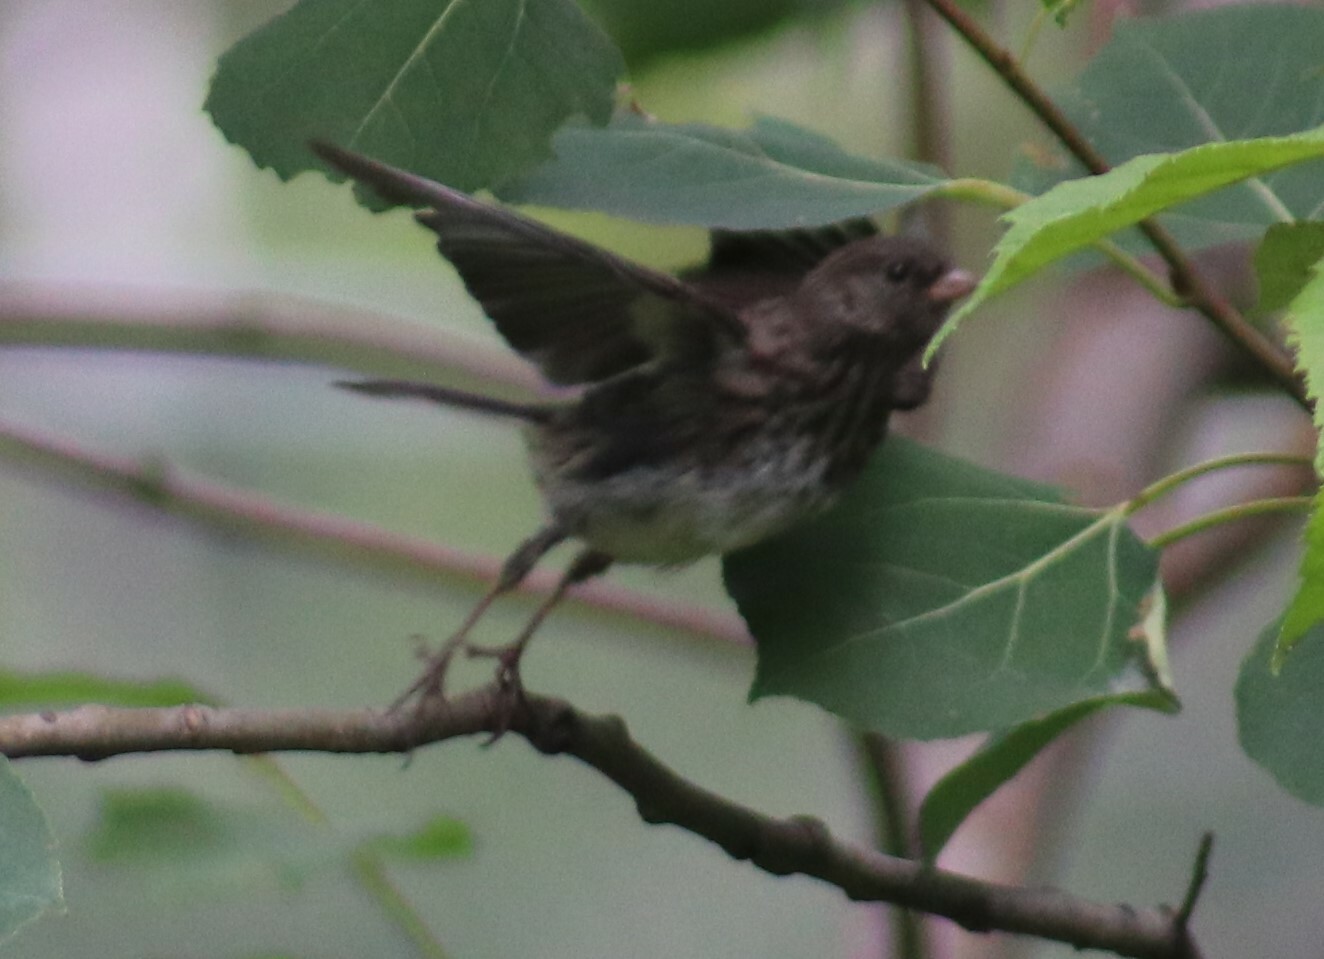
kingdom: Animalia
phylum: Chordata
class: Aves
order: Passeriformes
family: Passerellidae
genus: Junco
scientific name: Junco hyemalis
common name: Dark-eyed junco
